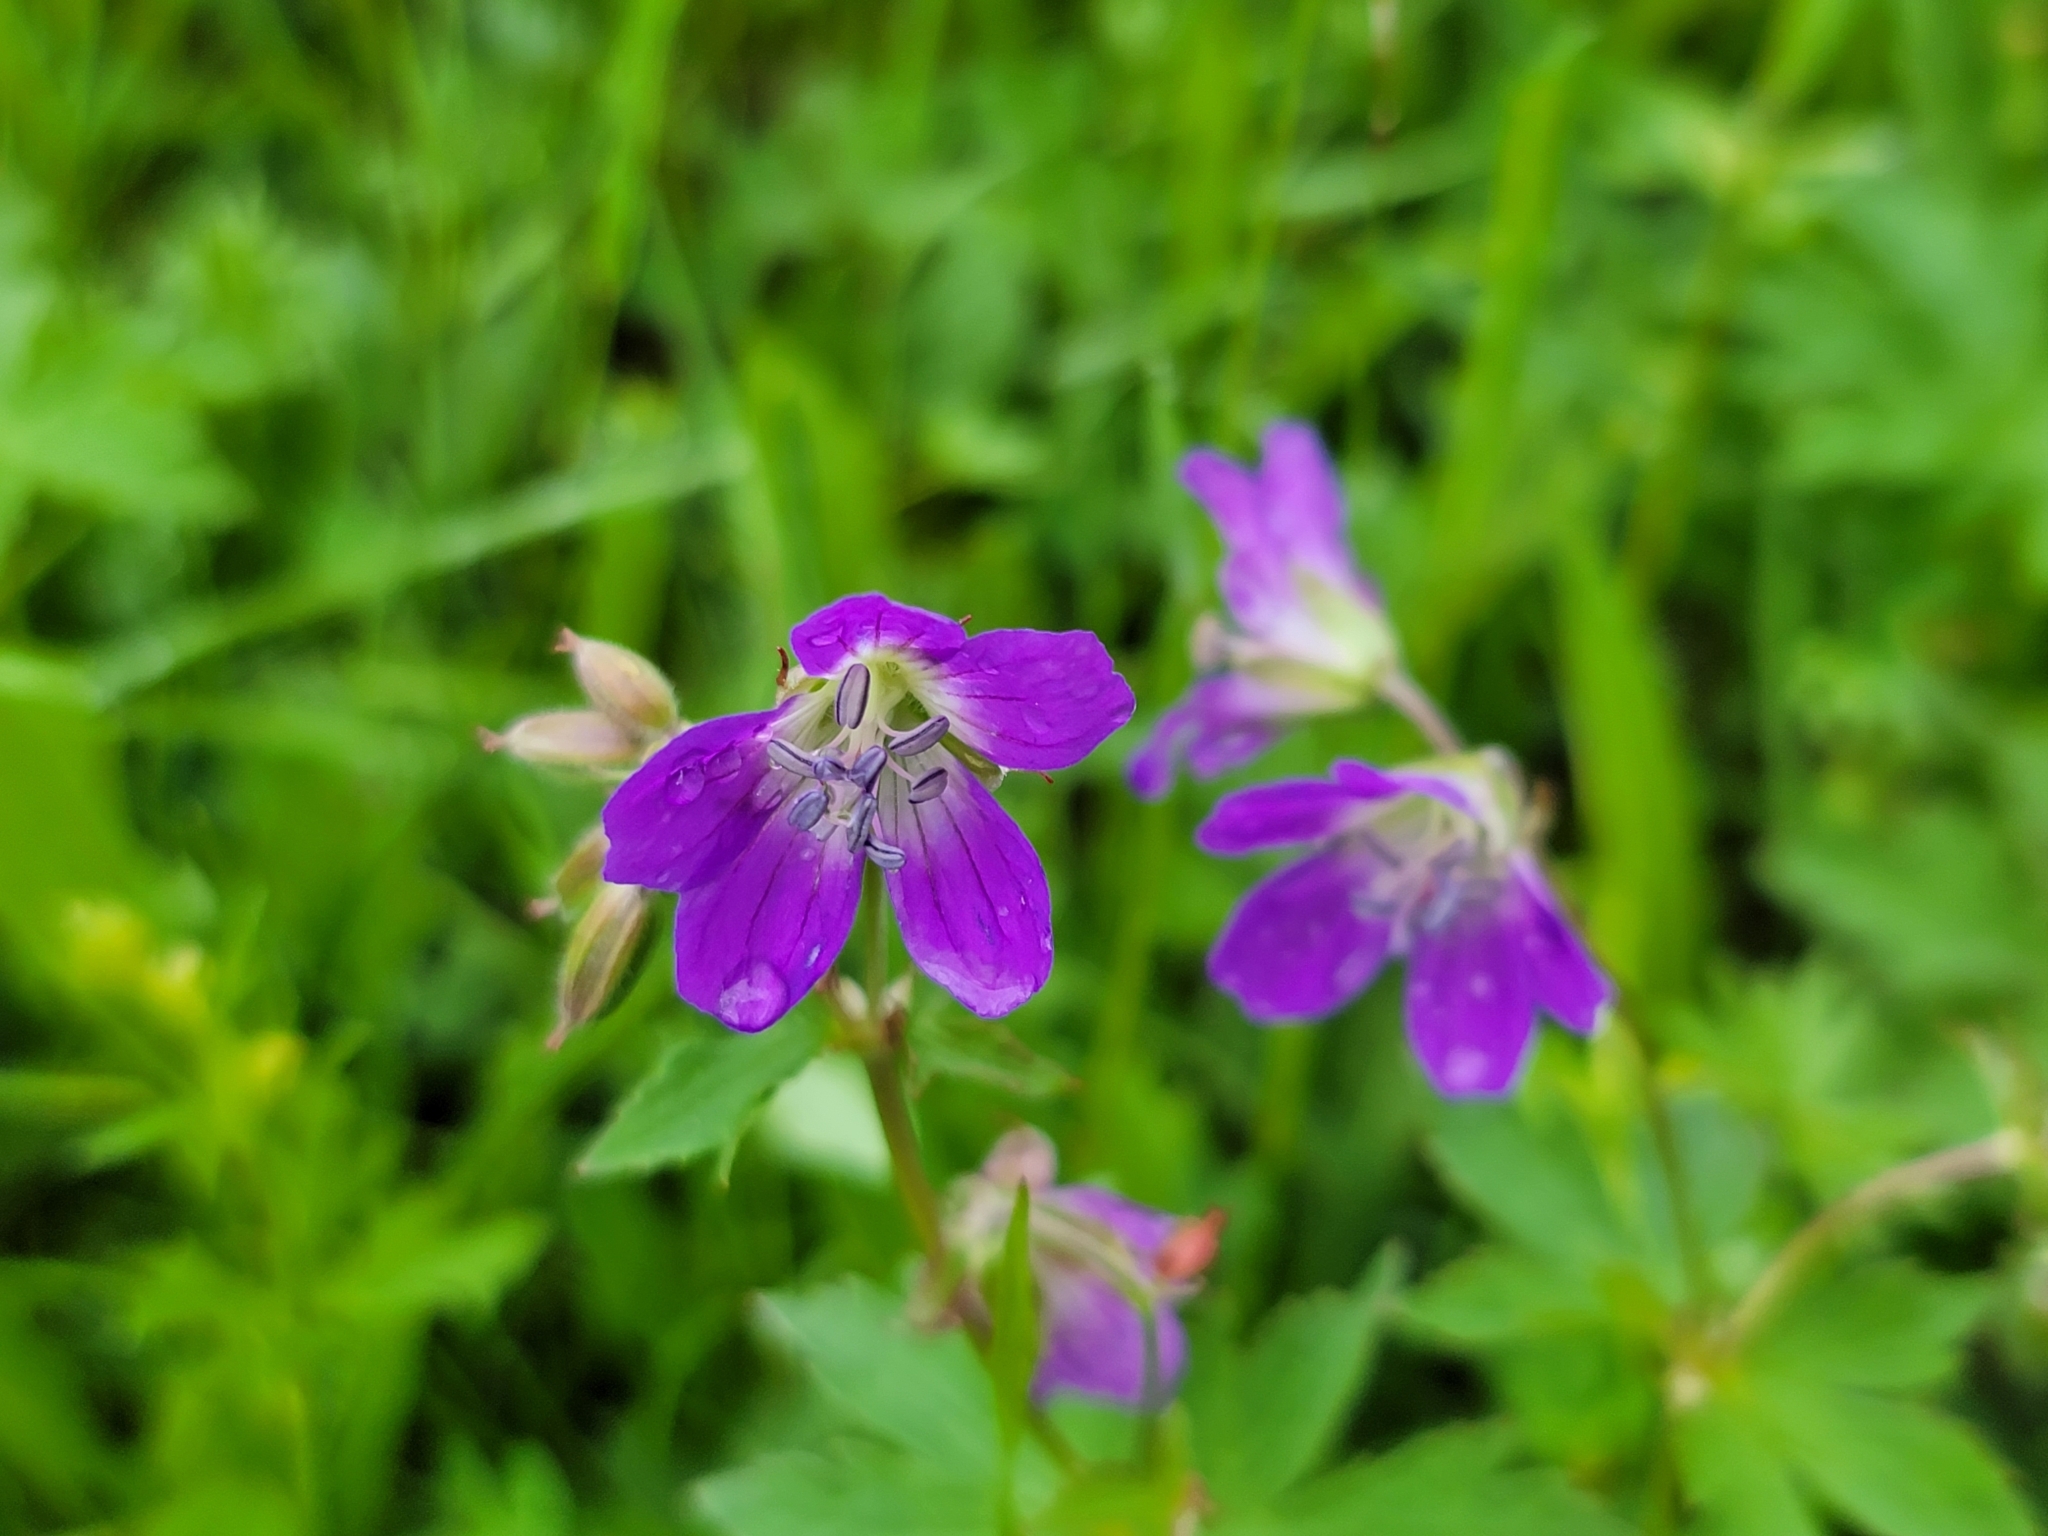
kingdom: Plantae
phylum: Tracheophyta
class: Magnoliopsida
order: Geraniales
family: Geraniaceae
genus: Geranium
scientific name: Geranium sylvaticum
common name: Wood crane's-bill
